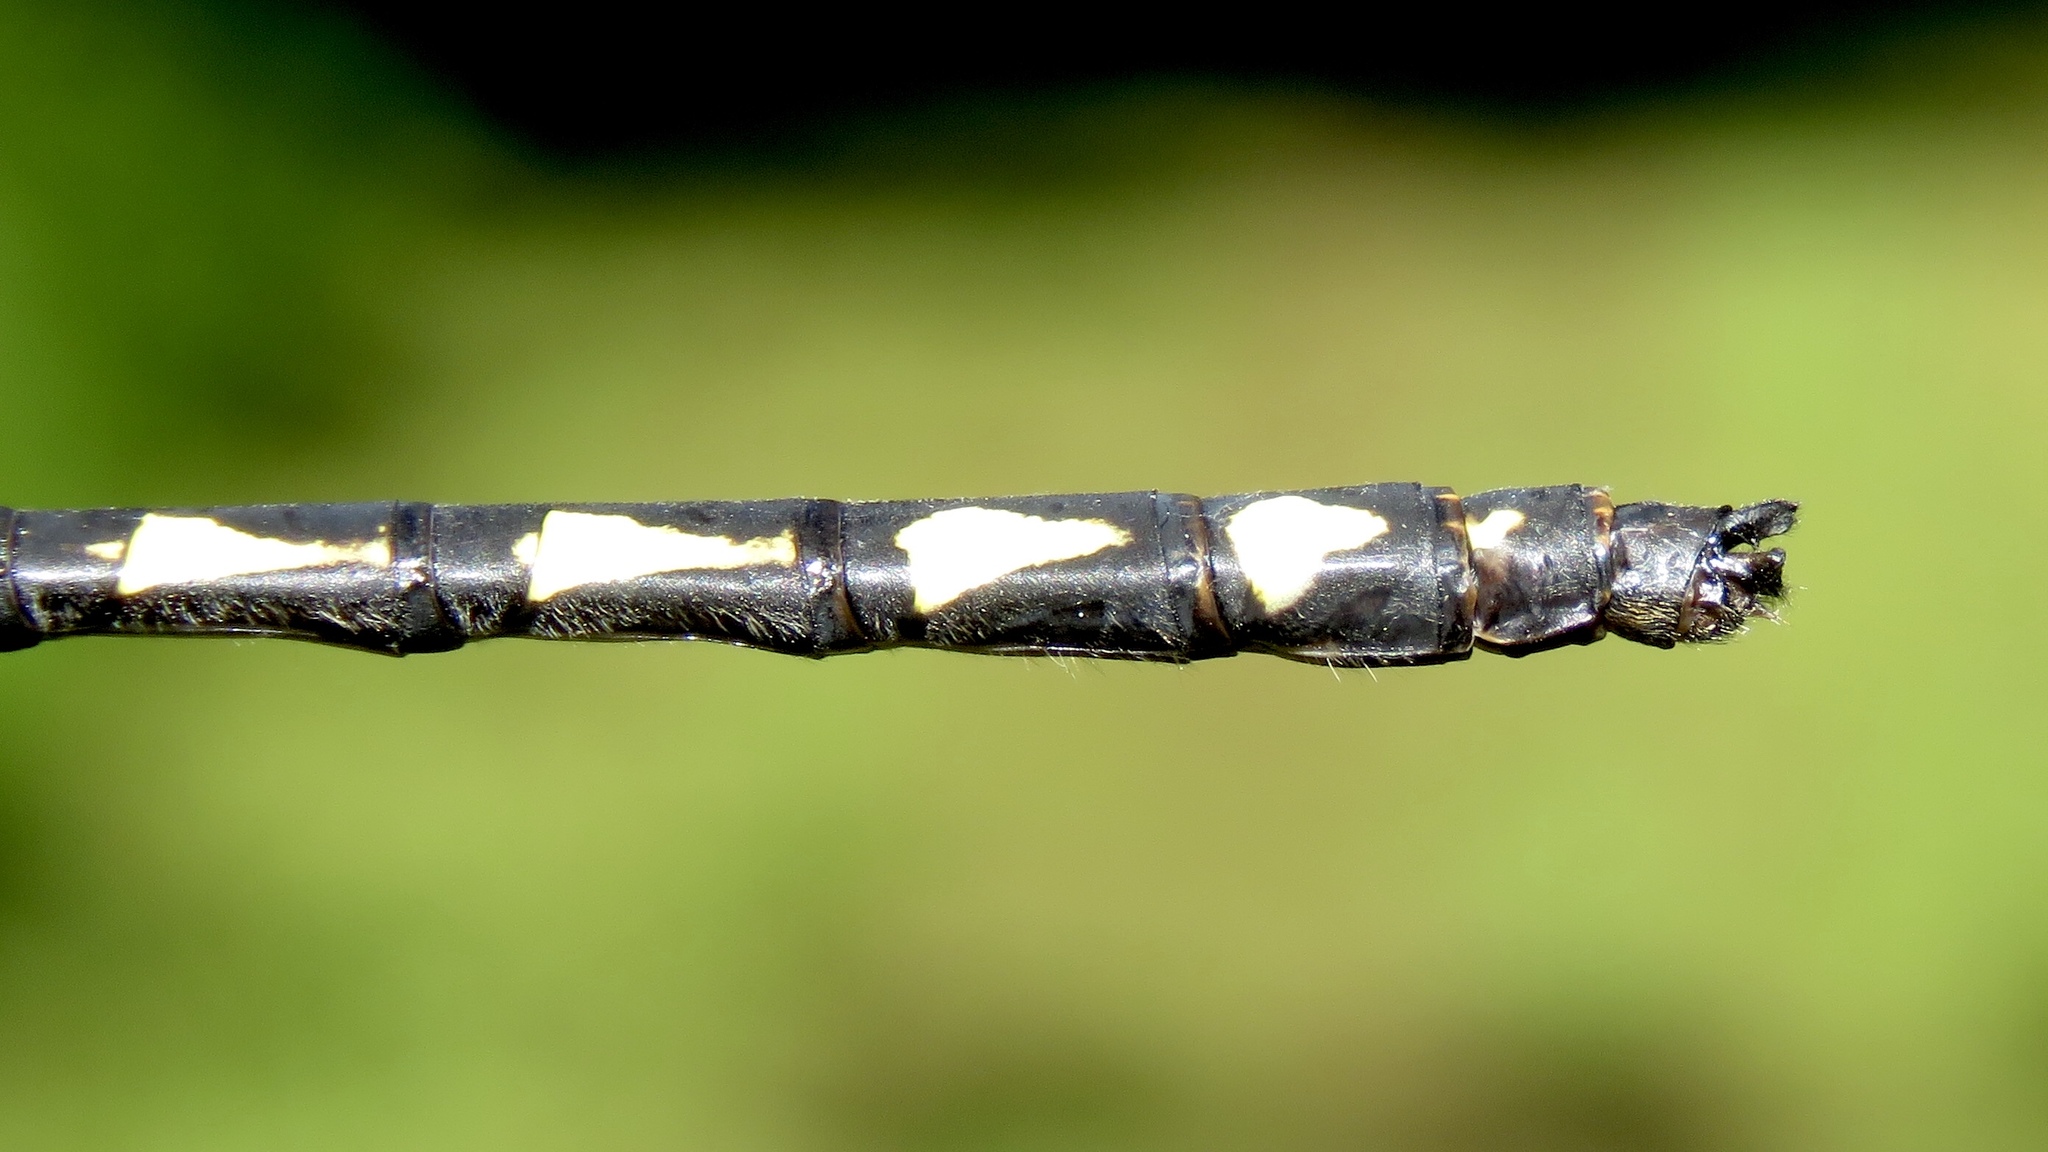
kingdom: Animalia
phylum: Arthropoda
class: Insecta
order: Odonata
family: Cordulegastridae
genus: Cordulegaster
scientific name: Cordulegaster diastatops
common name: Delta-spotted spiketail
